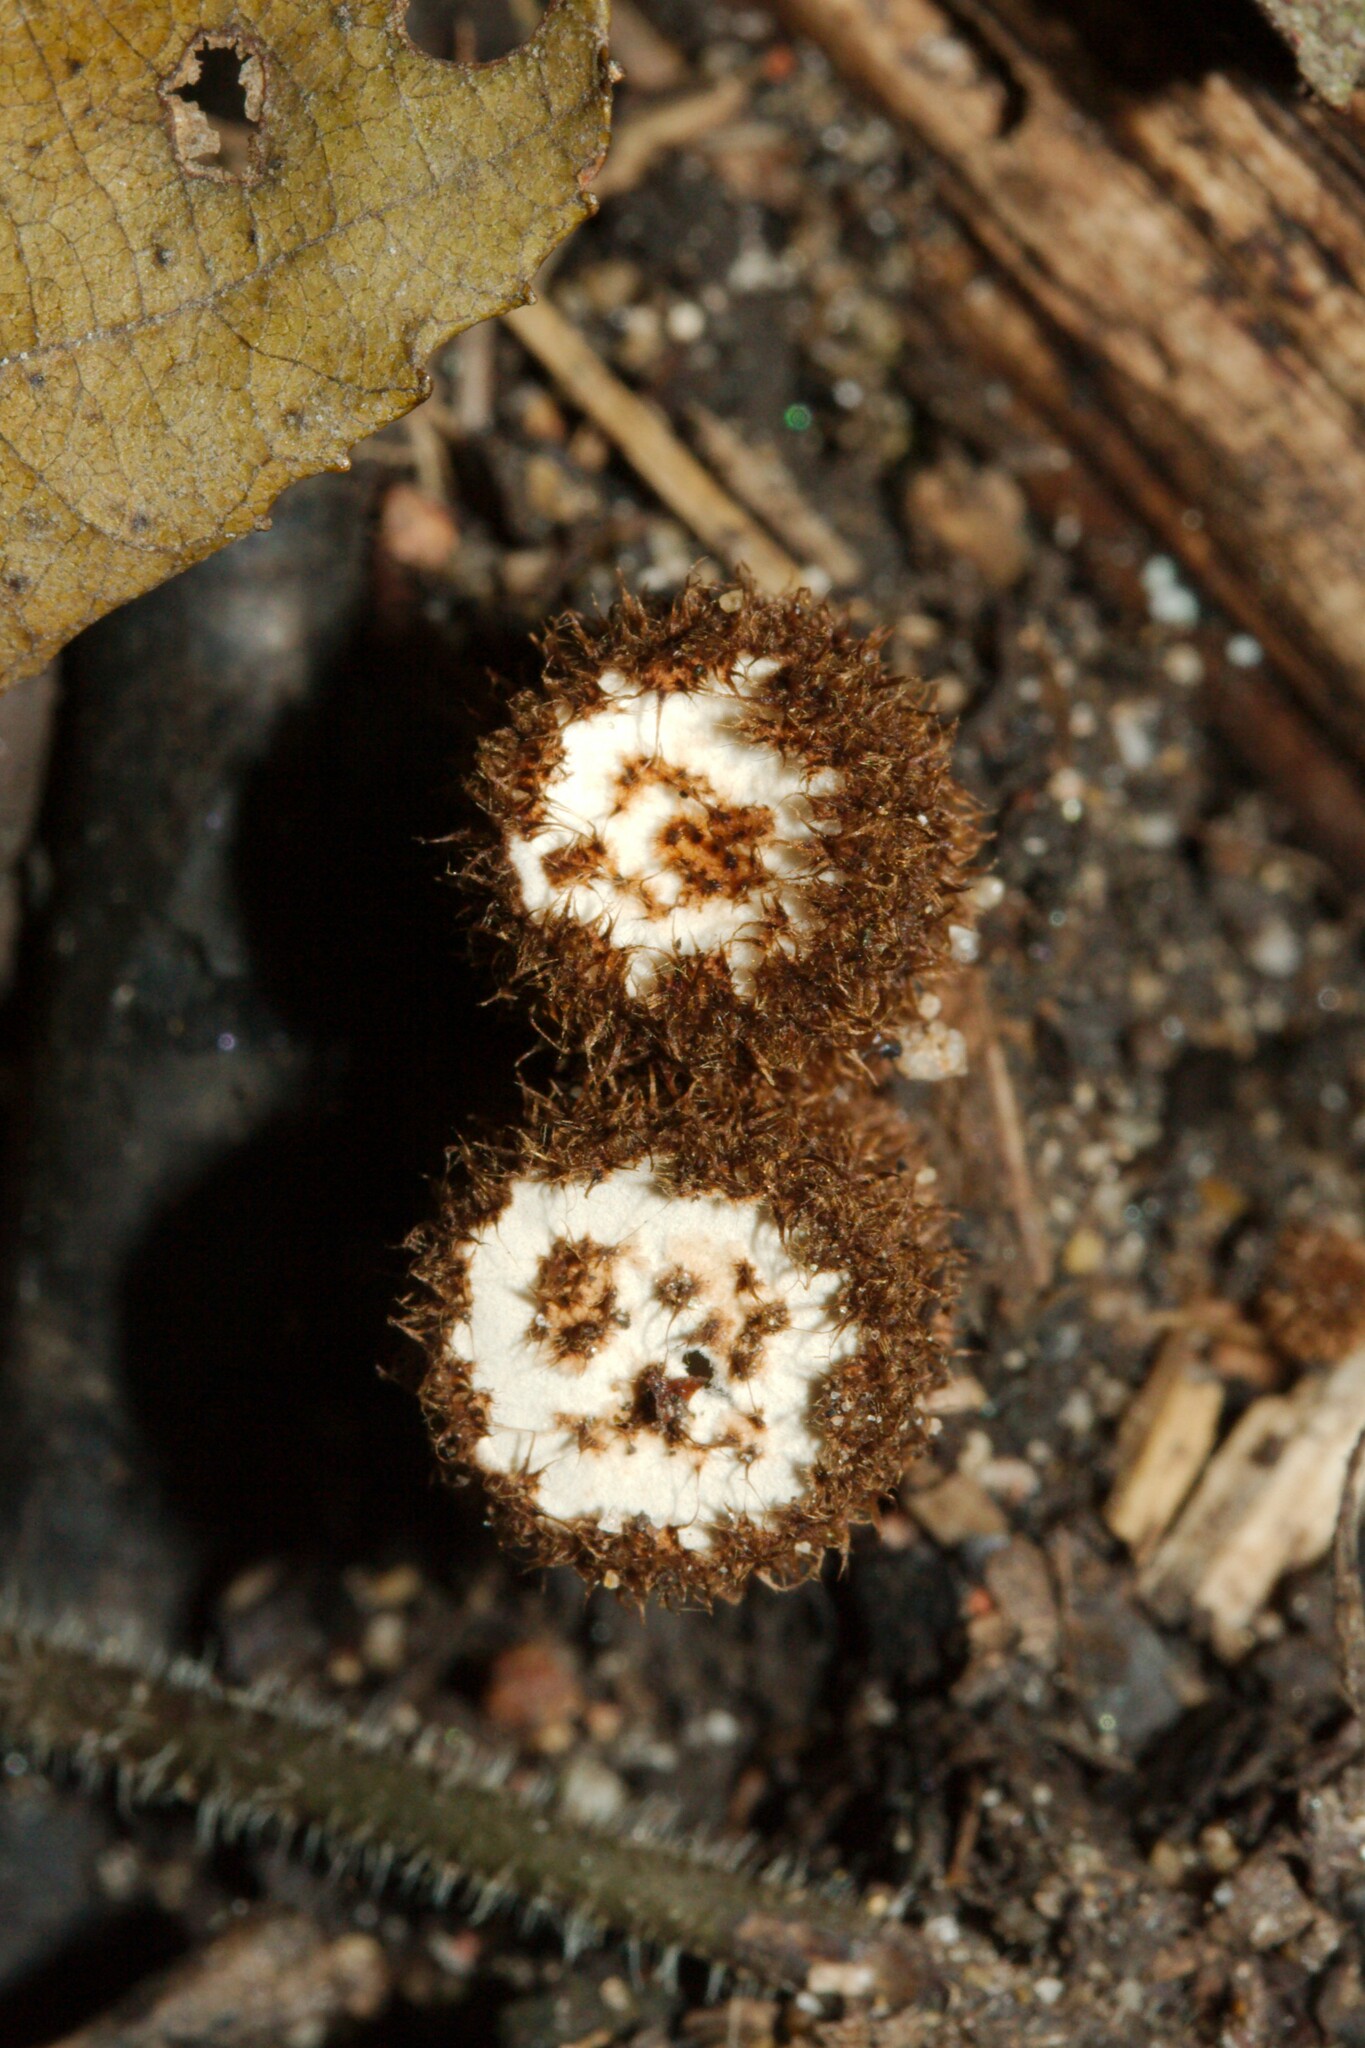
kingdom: Fungi
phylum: Basidiomycota
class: Agaricomycetes
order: Agaricales
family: Agaricaceae
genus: Cyathus
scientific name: Cyathus striatus
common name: Fluted bird's nest
